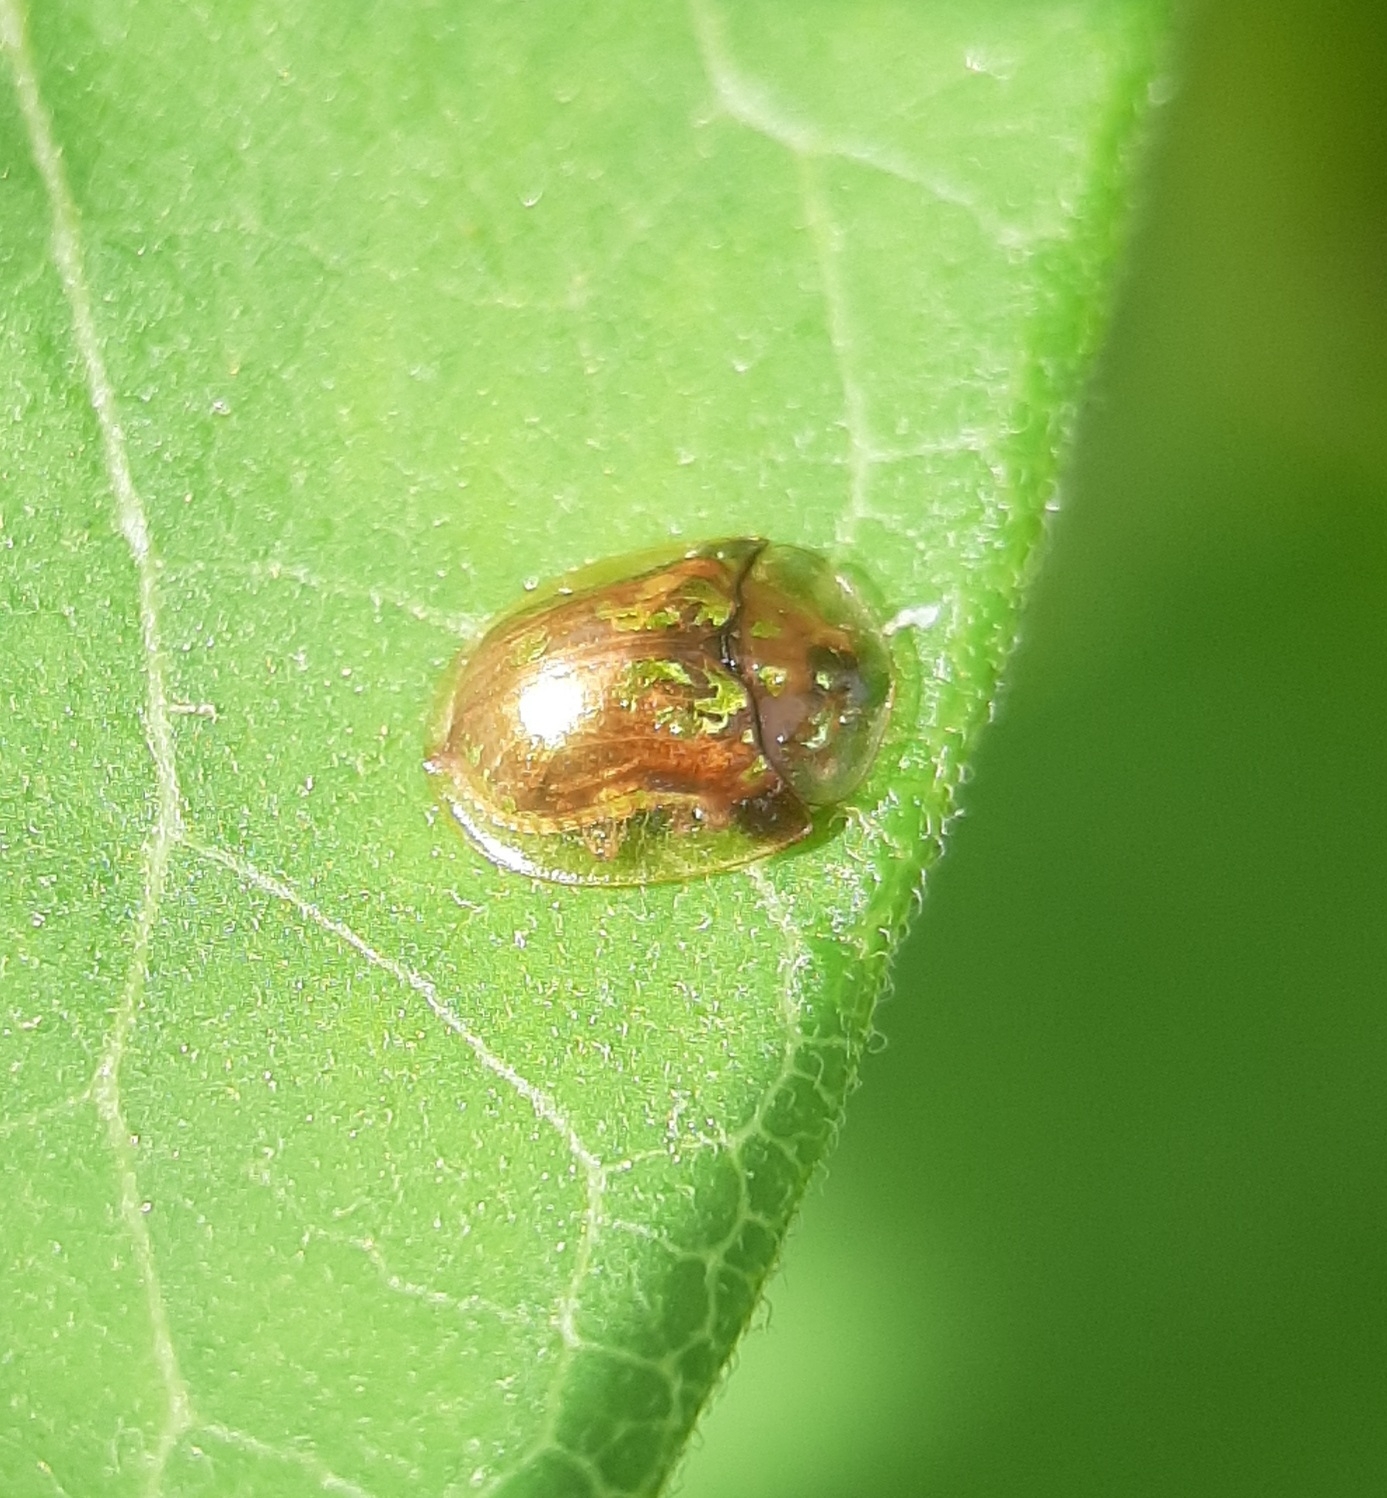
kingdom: Animalia
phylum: Arthropoda
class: Insecta
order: Coleoptera
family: Chrysomelidae
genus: Deloyala
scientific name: Deloyala guttata
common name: Mottled tortoise beetle
